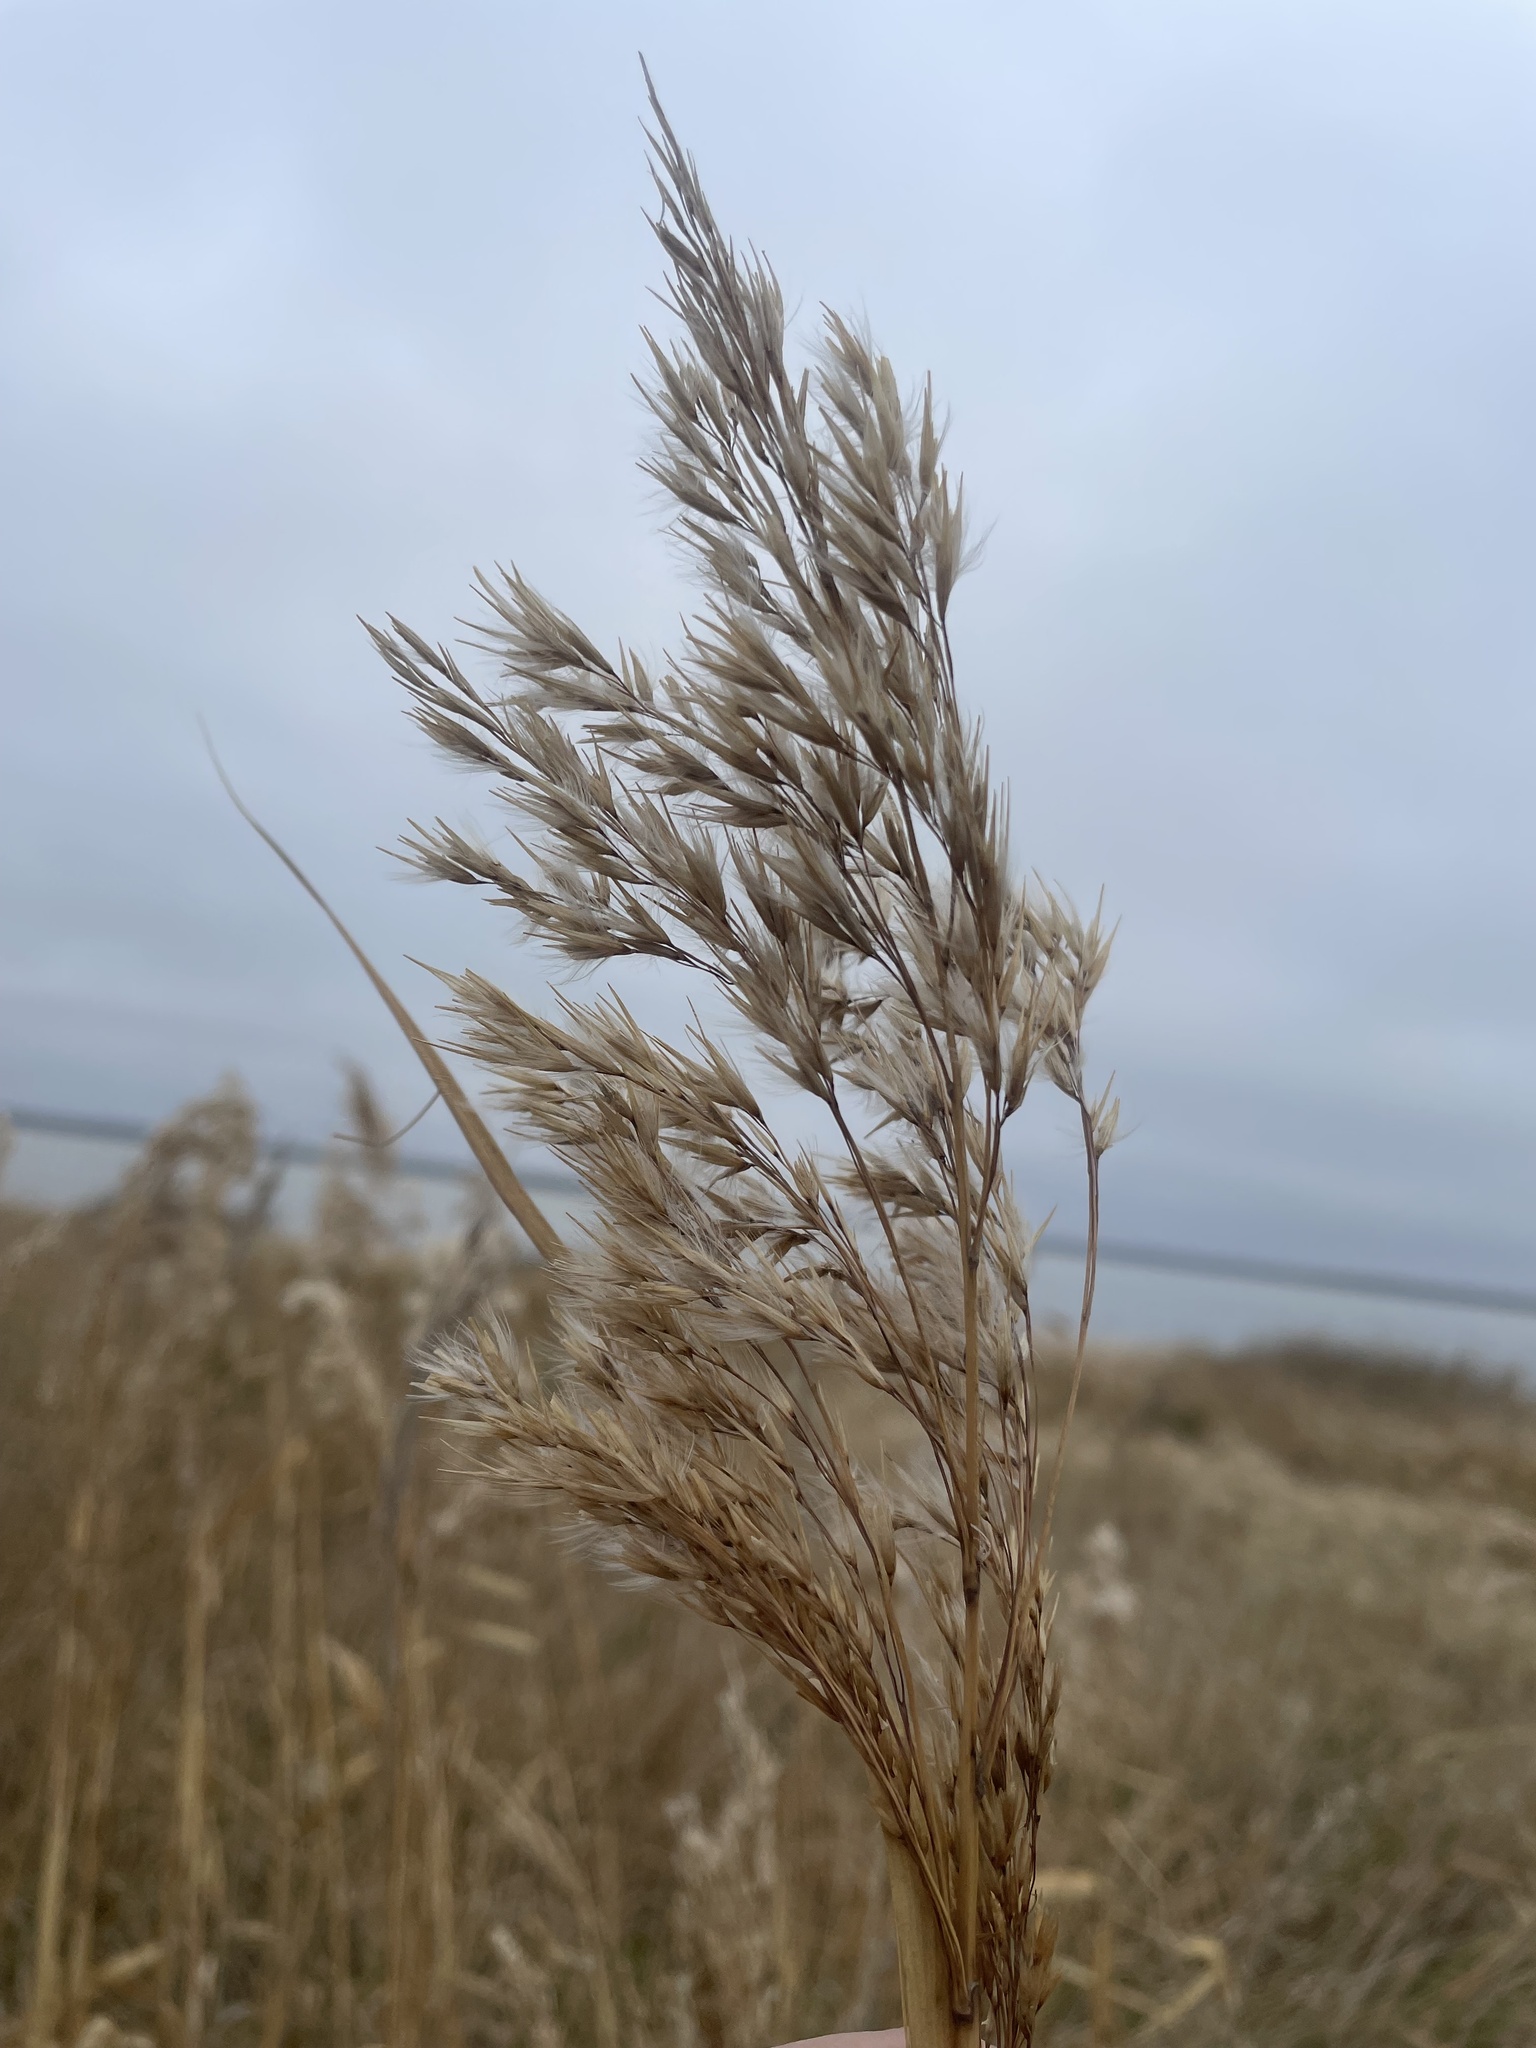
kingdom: Plantae
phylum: Tracheophyta
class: Liliopsida
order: Poales
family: Poaceae
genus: Phragmites
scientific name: Phragmites australis
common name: Common reed
